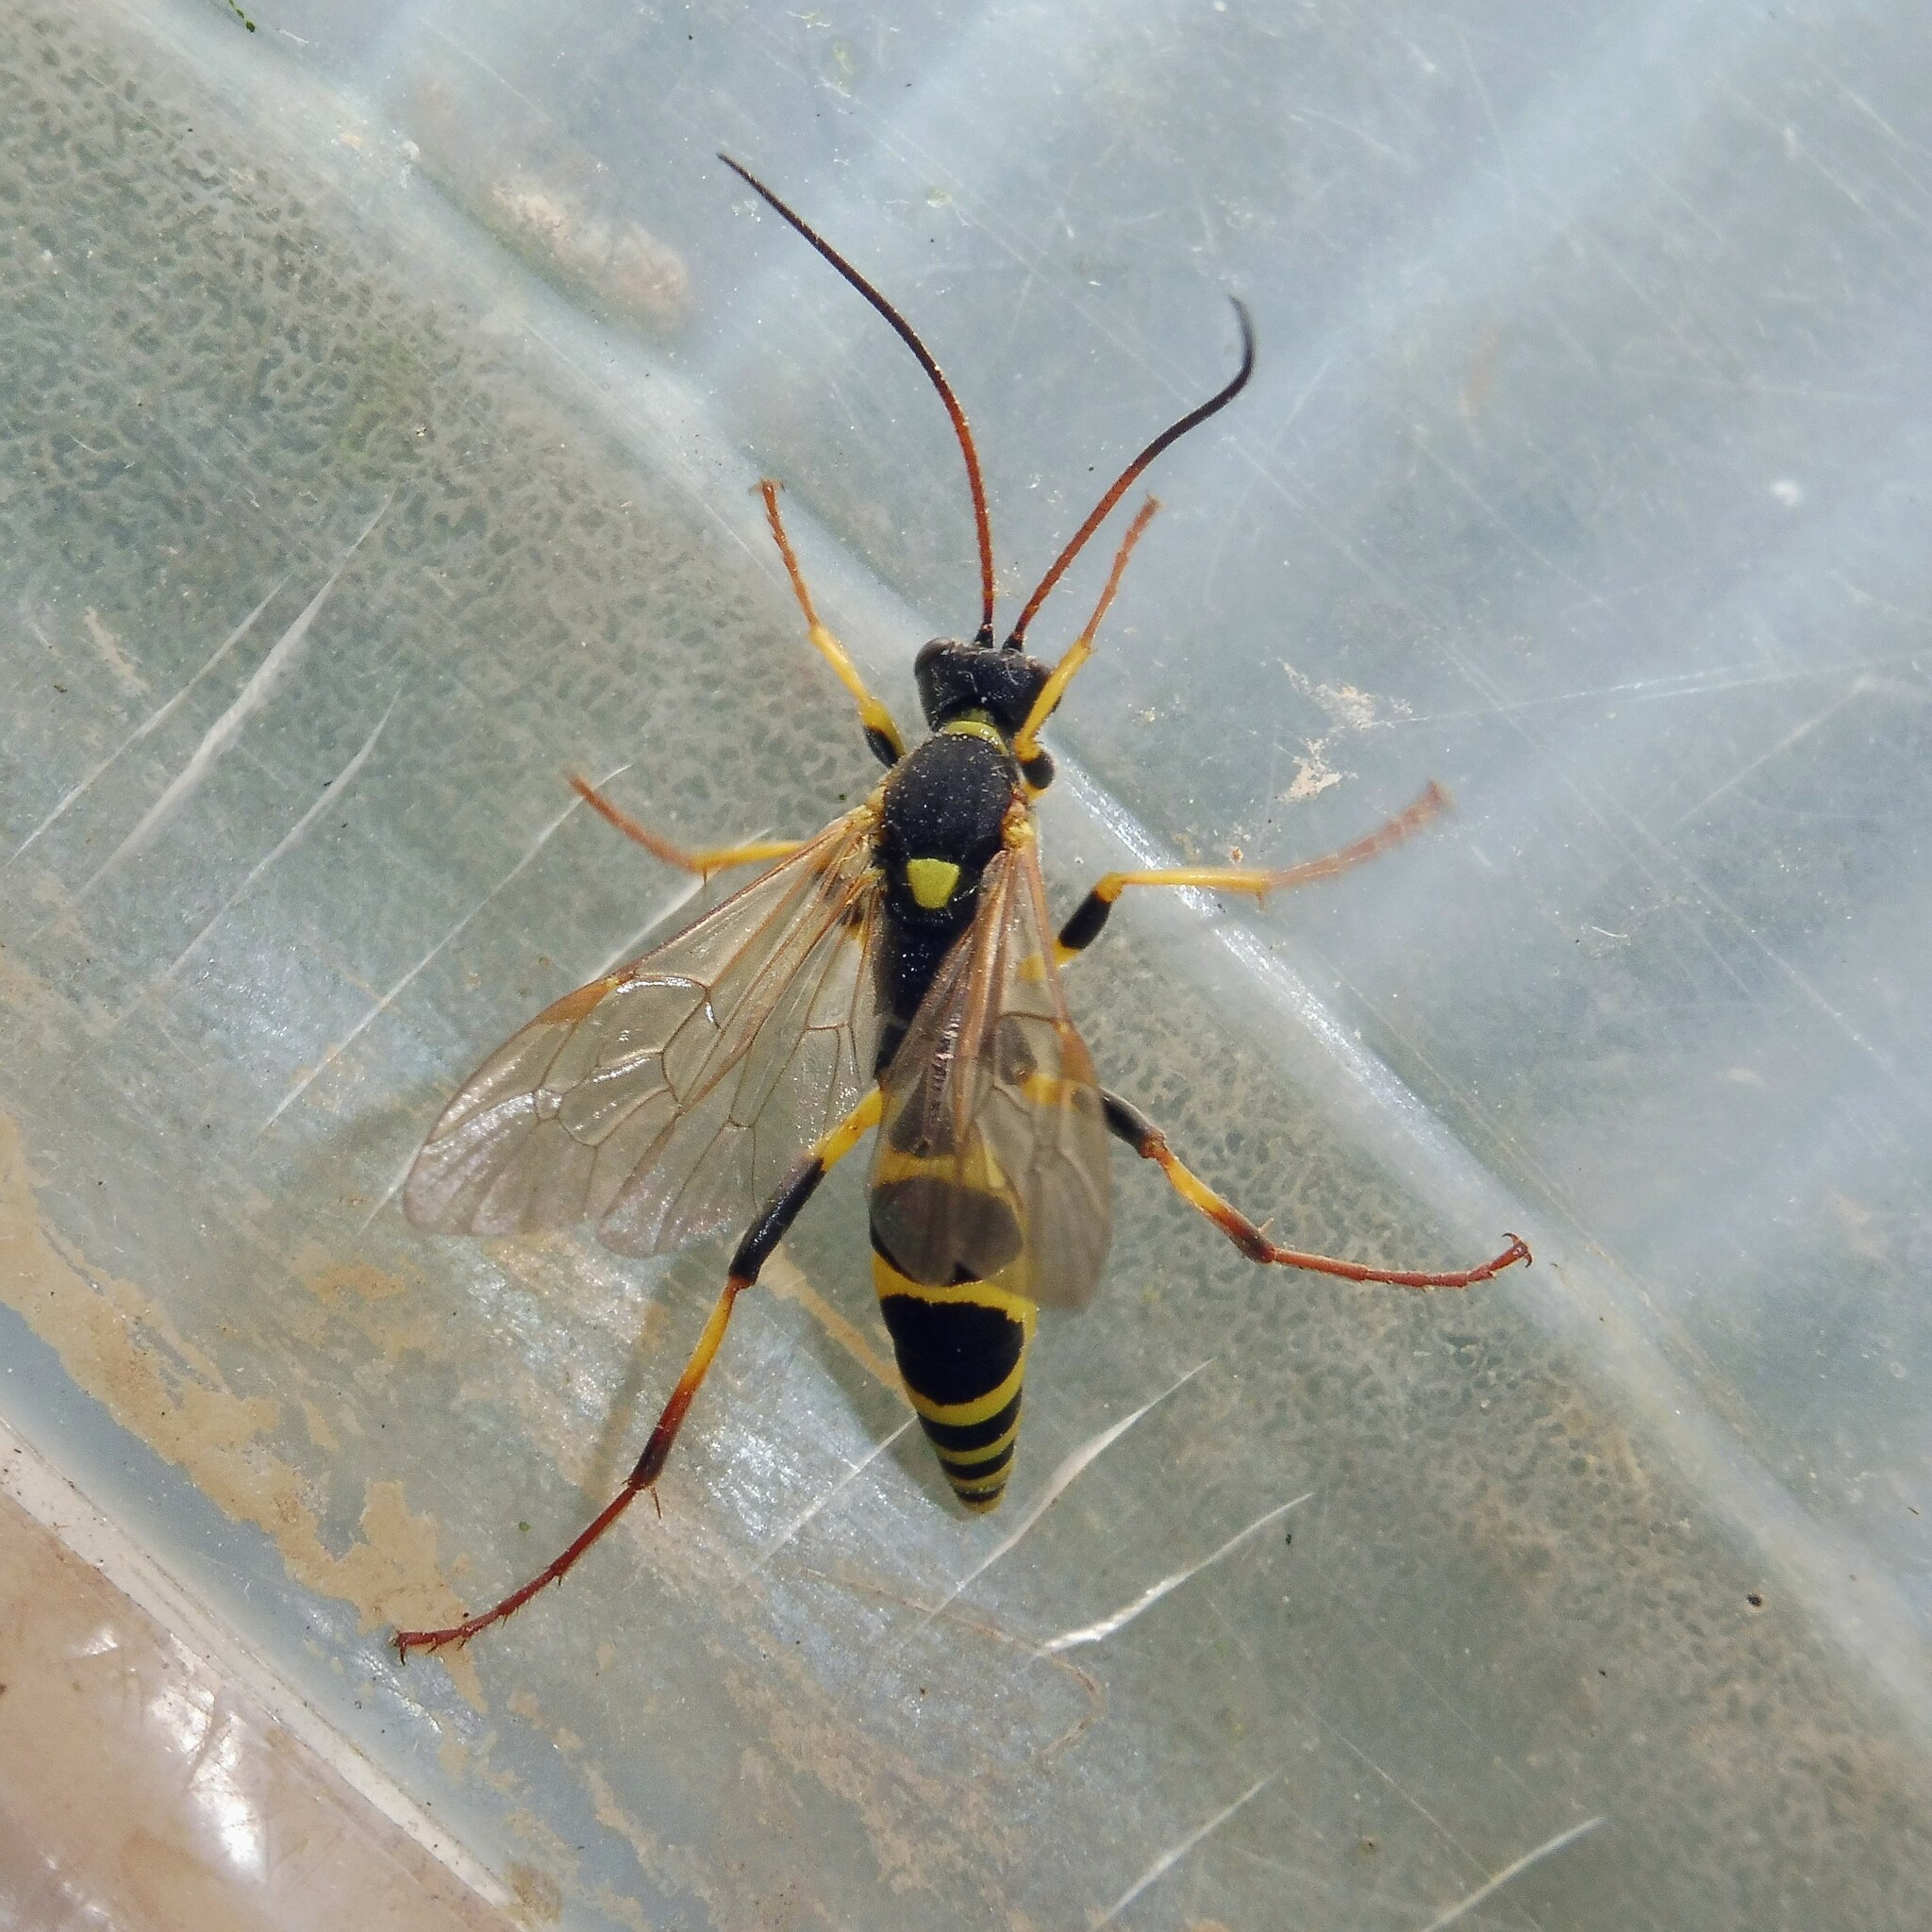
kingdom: Animalia
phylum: Arthropoda
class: Insecta
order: Hymenoptera
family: Ichneumonidae
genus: Amblyteles
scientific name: Amblyteles armatorius
